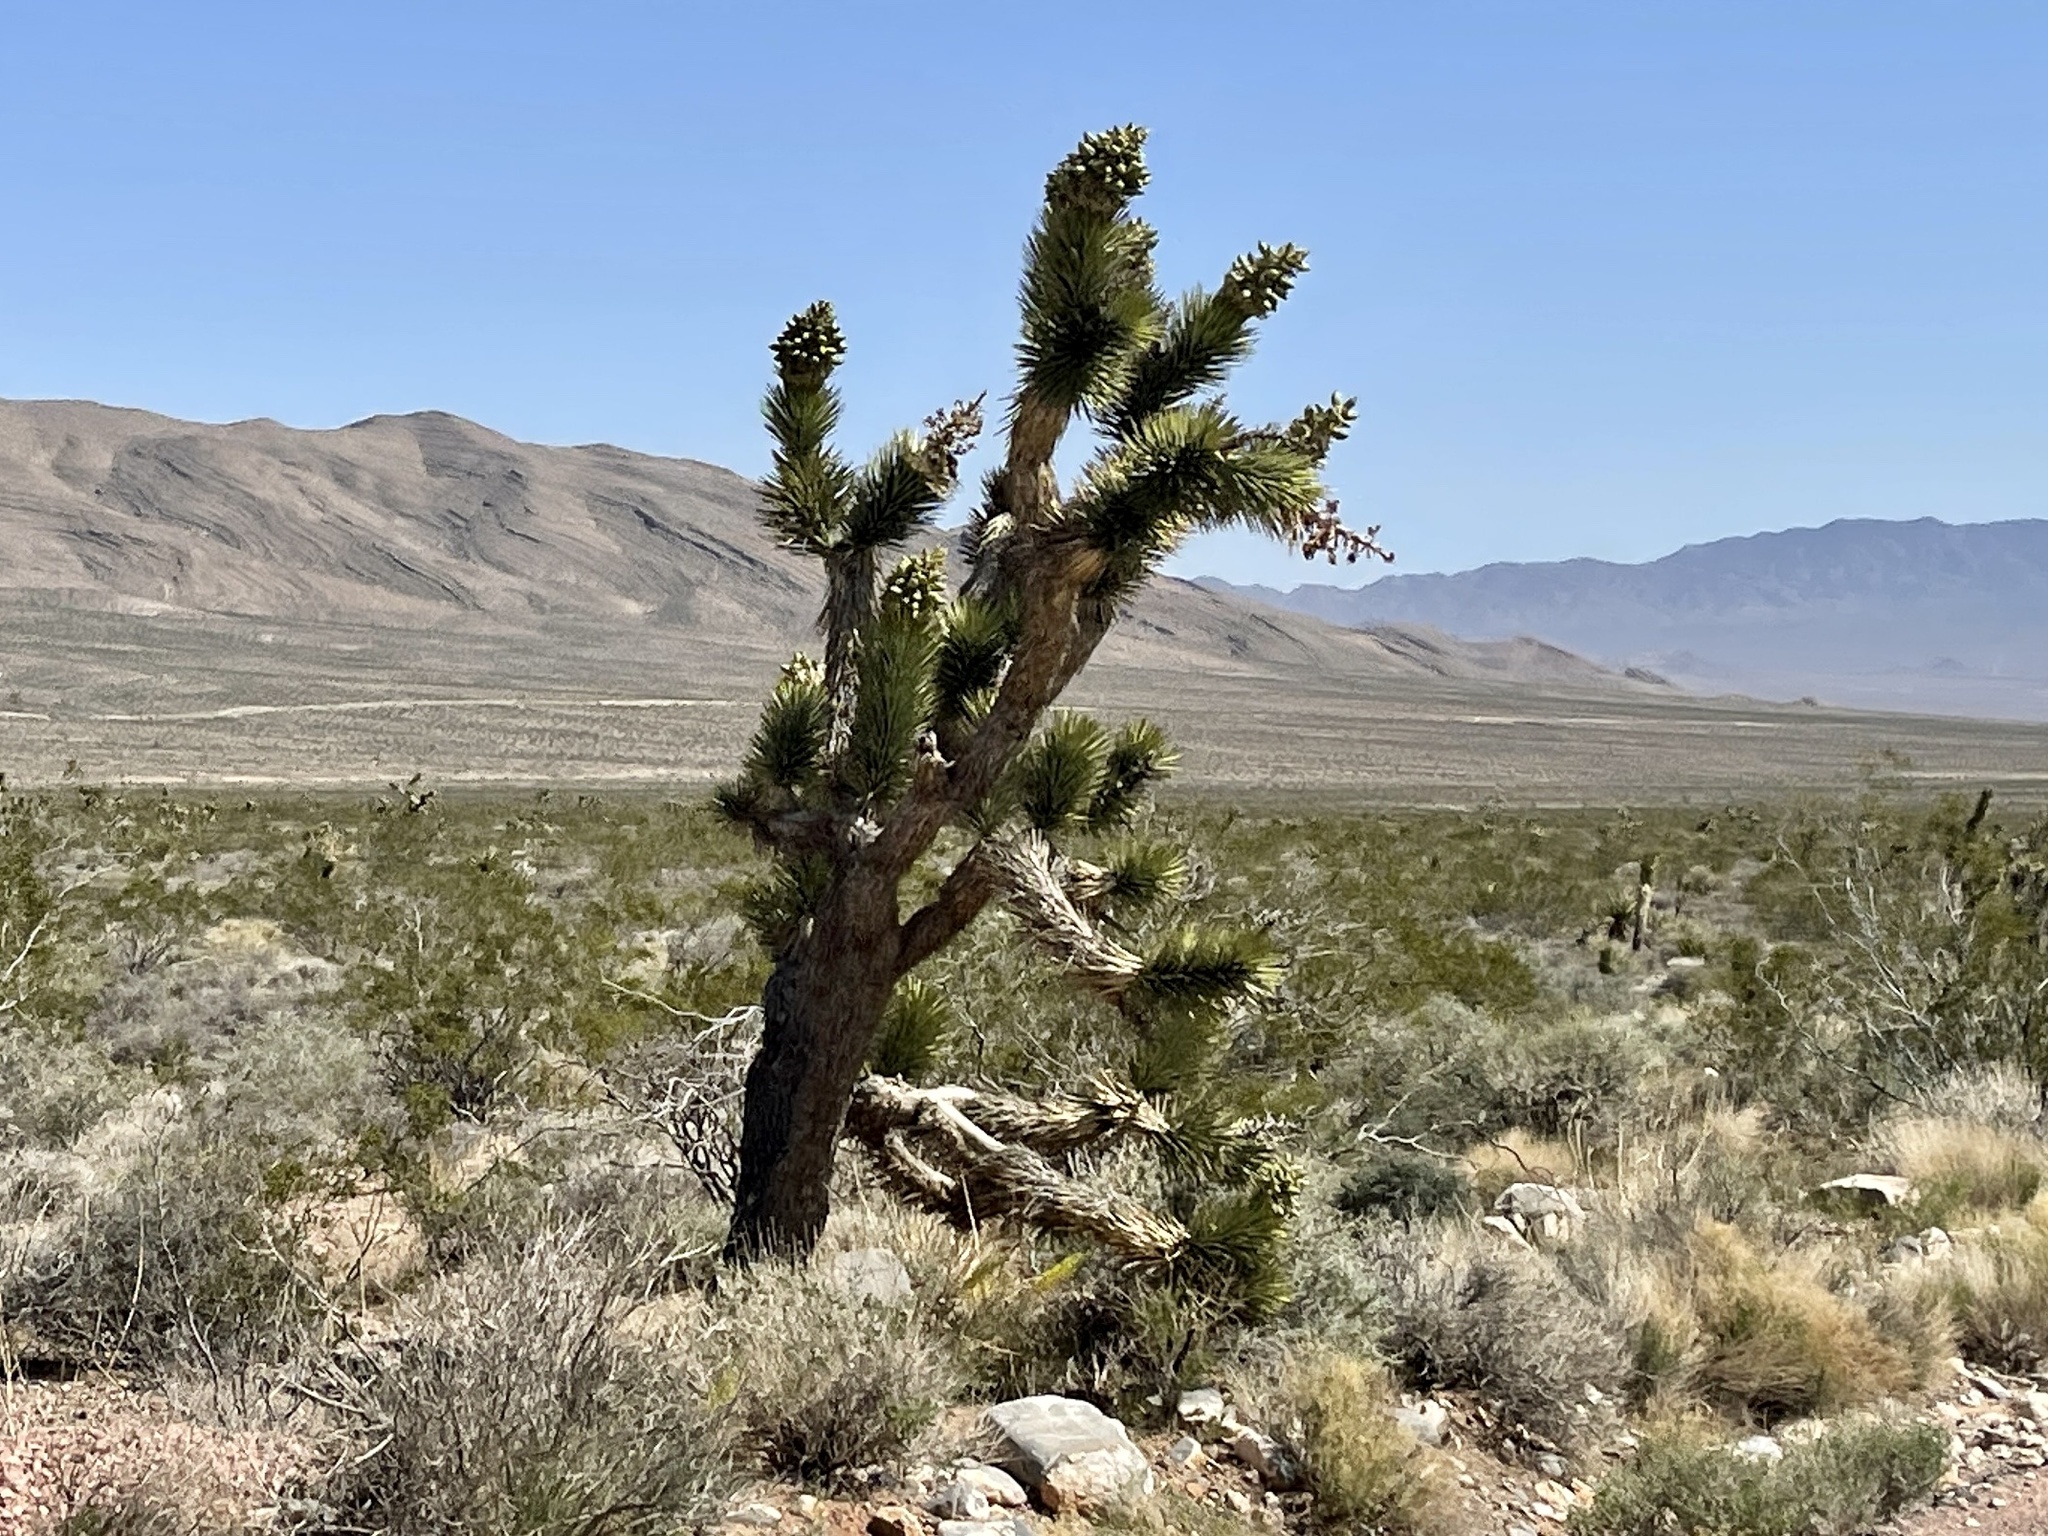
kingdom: Plantae
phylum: Tracheophyta
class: Liliopsida
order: Asparagales
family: Asparagaceae
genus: Yucca
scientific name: Yucca brevifolia
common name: Joshua tree
